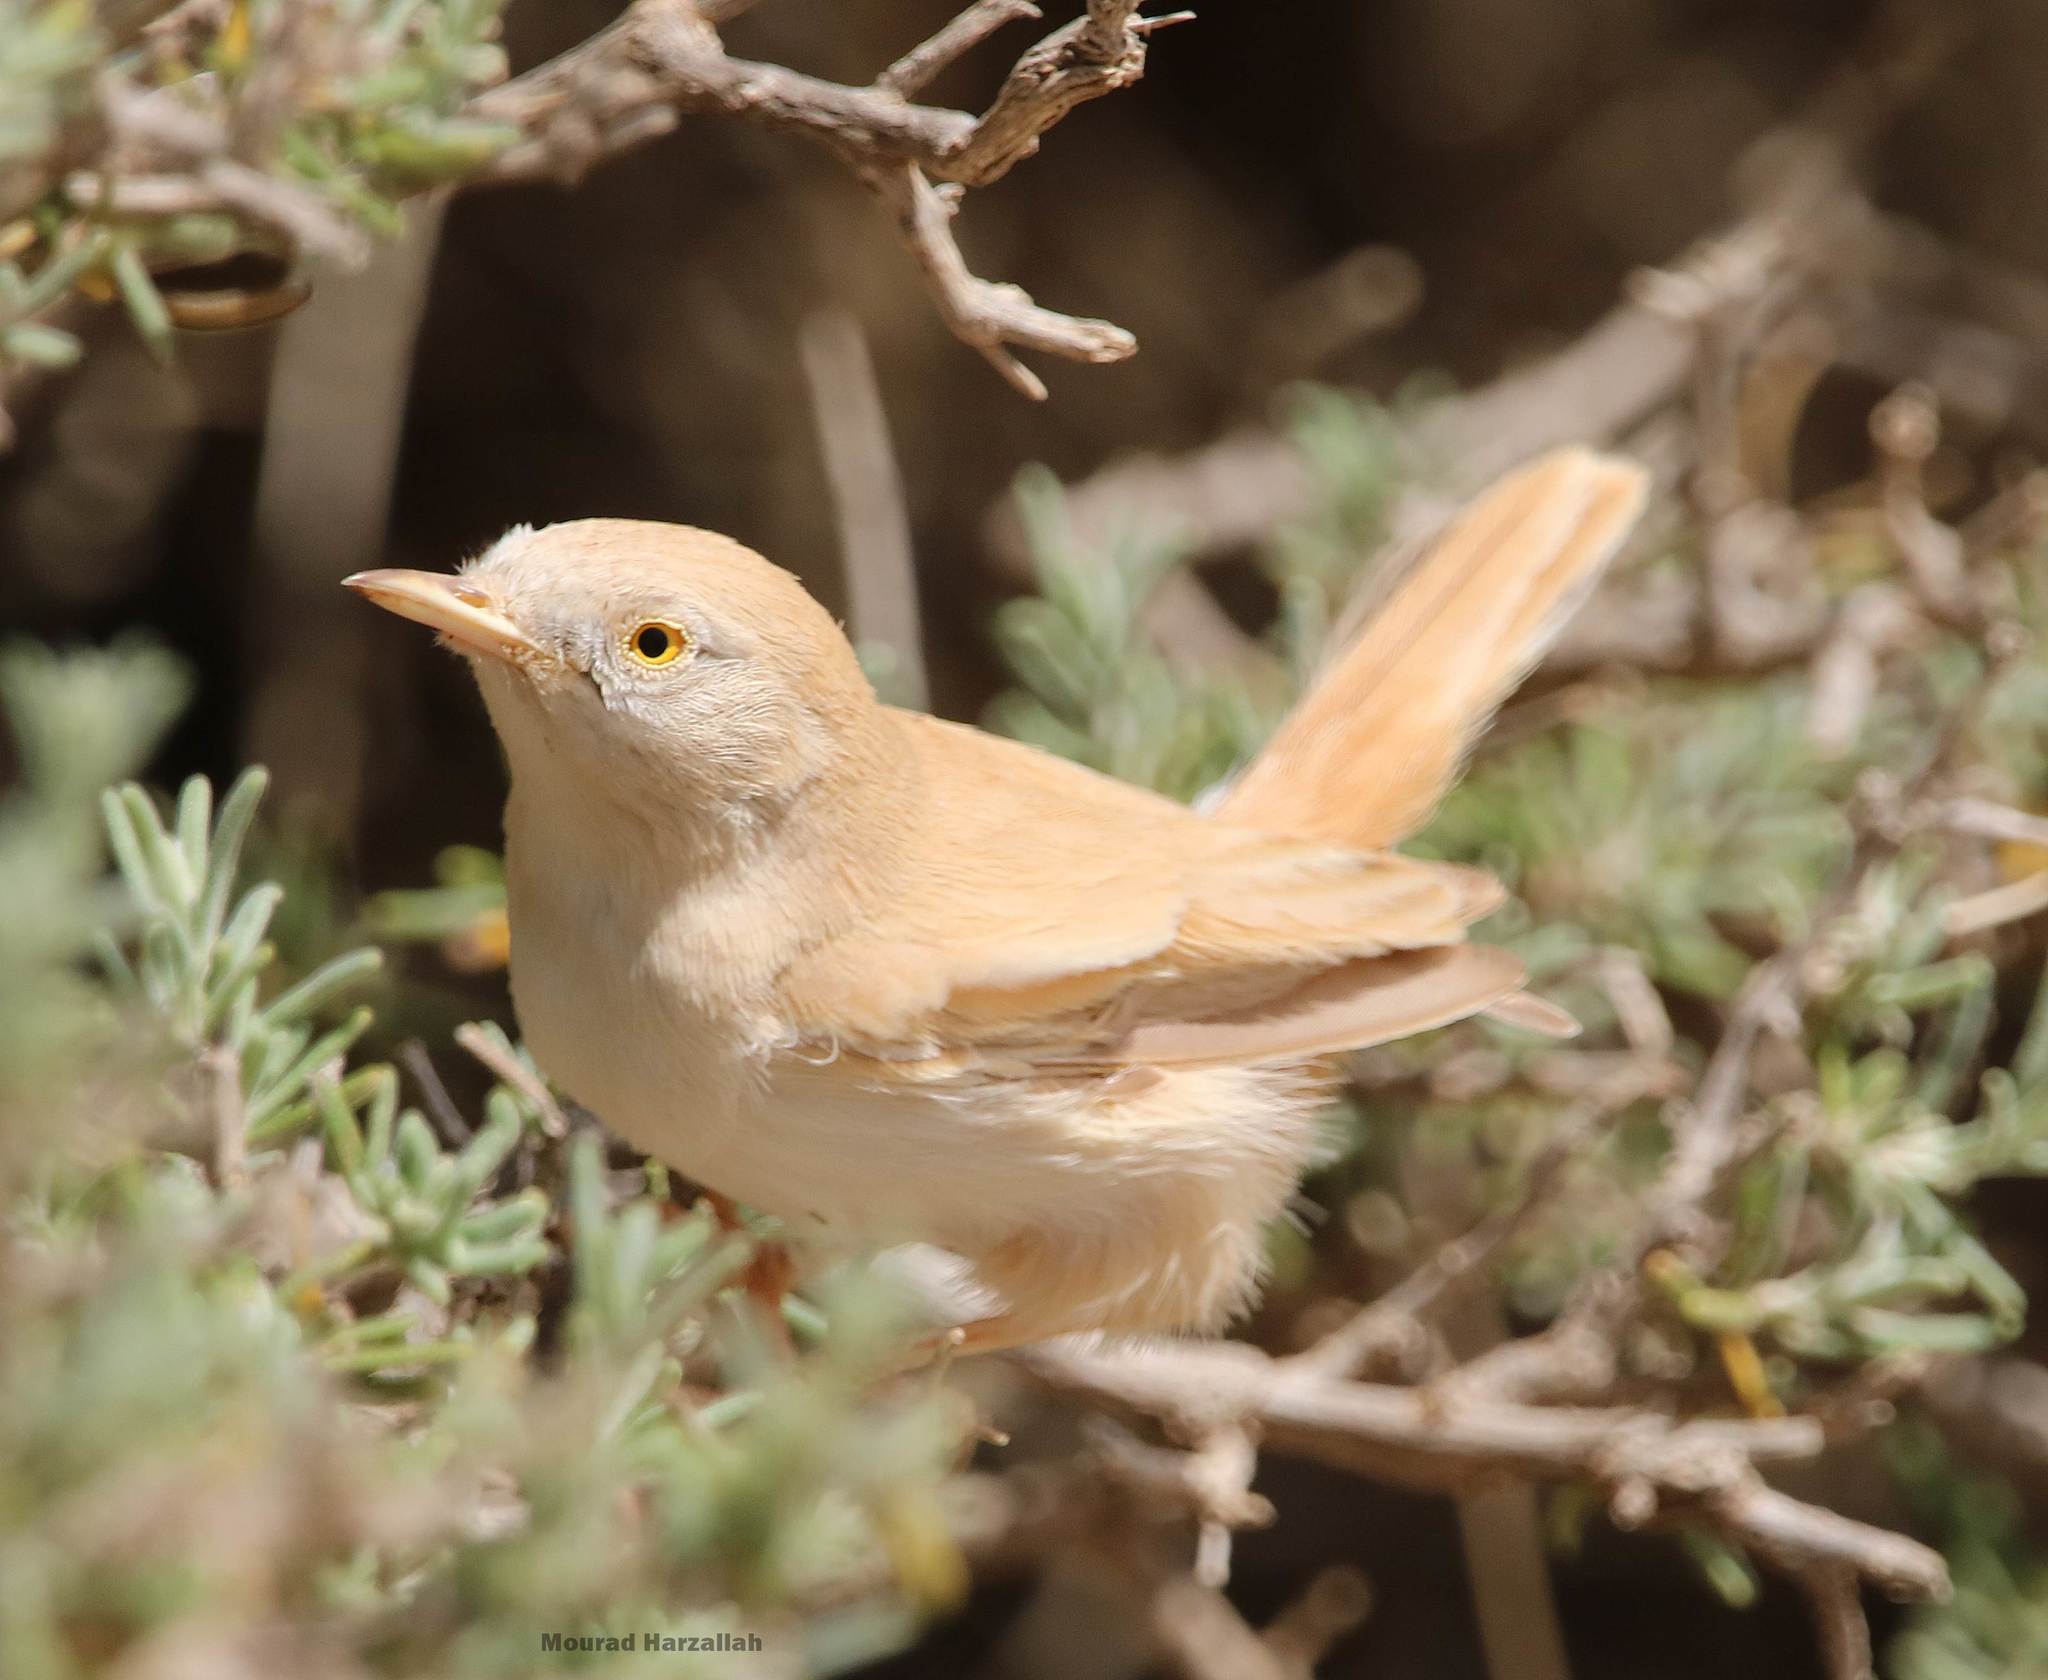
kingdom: Animalia
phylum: Chordata
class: Aves
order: Passeriformes
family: Sylviidae
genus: Sylvia
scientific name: Sylvia deserti
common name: African desert warbler
